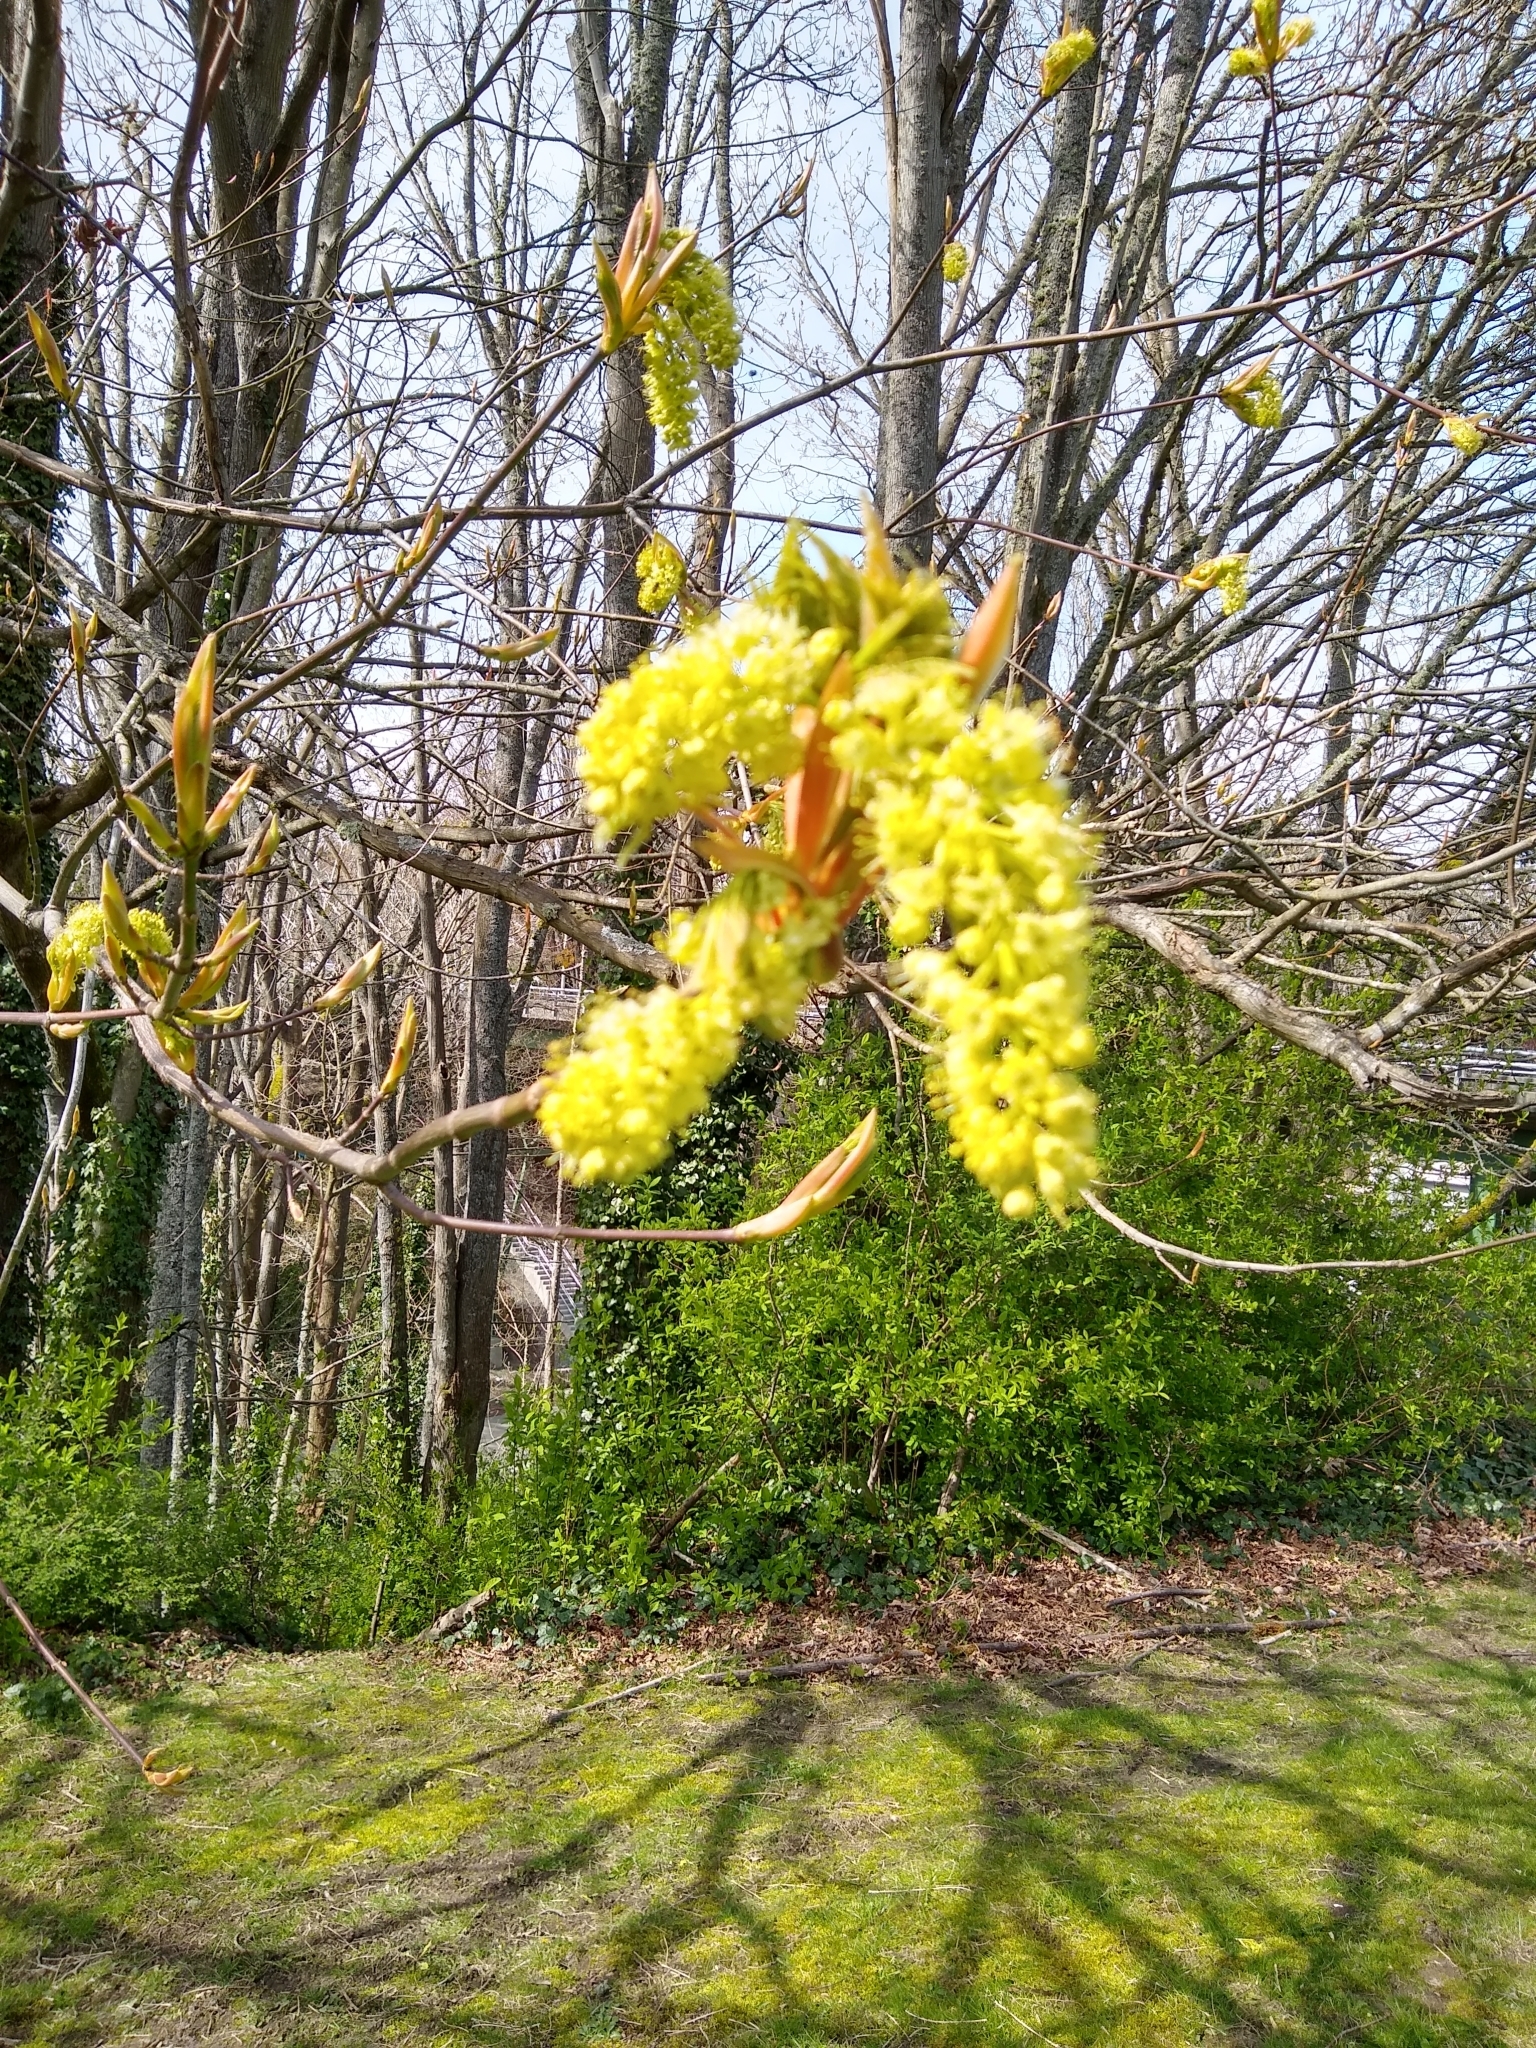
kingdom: Plantae
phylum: Tracheophyta
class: Magnoliopsida
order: Sapindales
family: Sapindaceae
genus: Acer
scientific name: Acer macrophyllum
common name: Oregon maple
